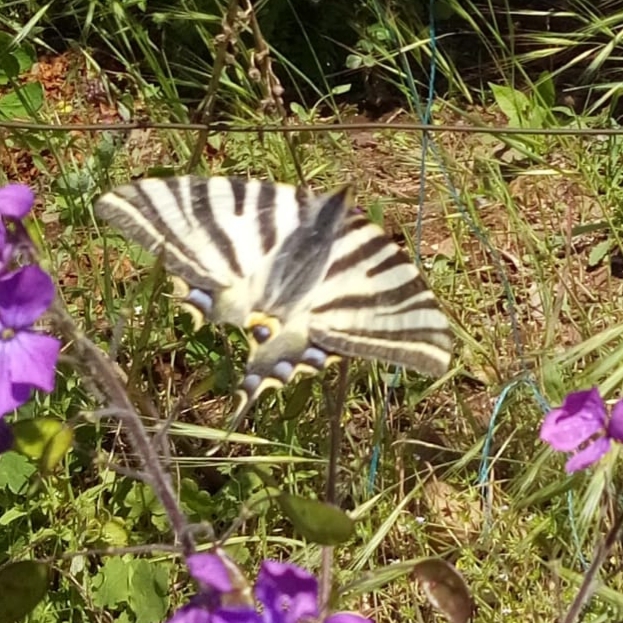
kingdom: Animalia
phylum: Arthropoda
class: Insecta
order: Lepidoptera
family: Papilionidae
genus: Iphiclides
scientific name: Iphiclides feisthamelii
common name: Iberian scarce swallowtail
